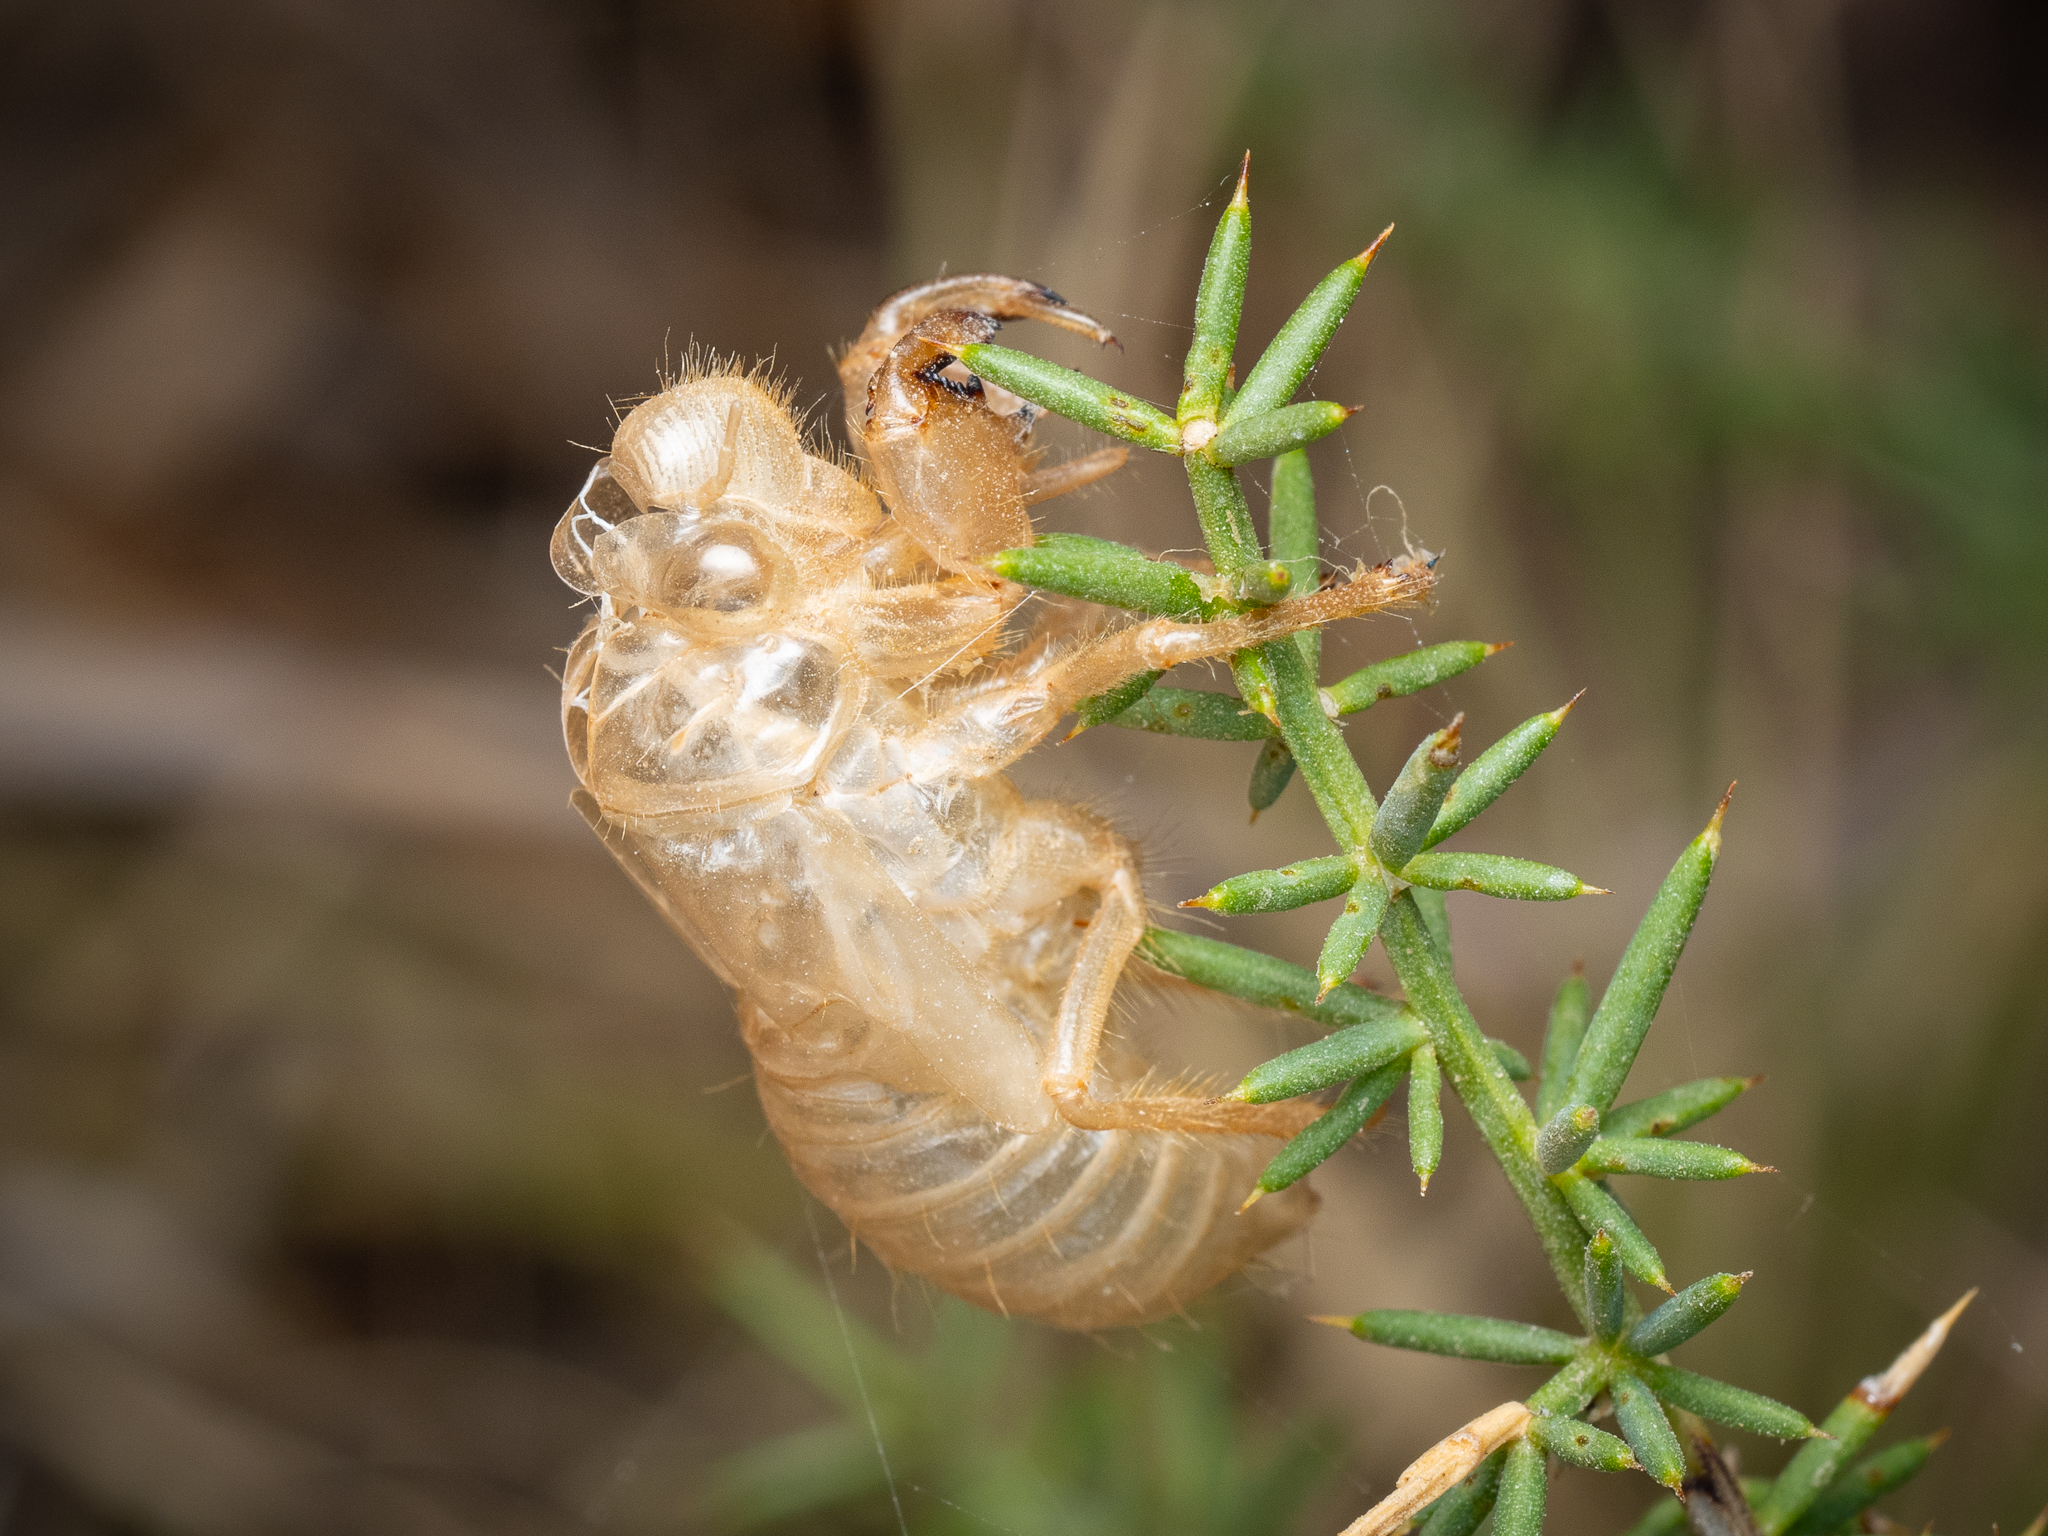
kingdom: Animalia
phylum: Arthropoda
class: Insecta
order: Hemiptera
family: Cicadidae
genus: Cicada
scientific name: Cicada orni
